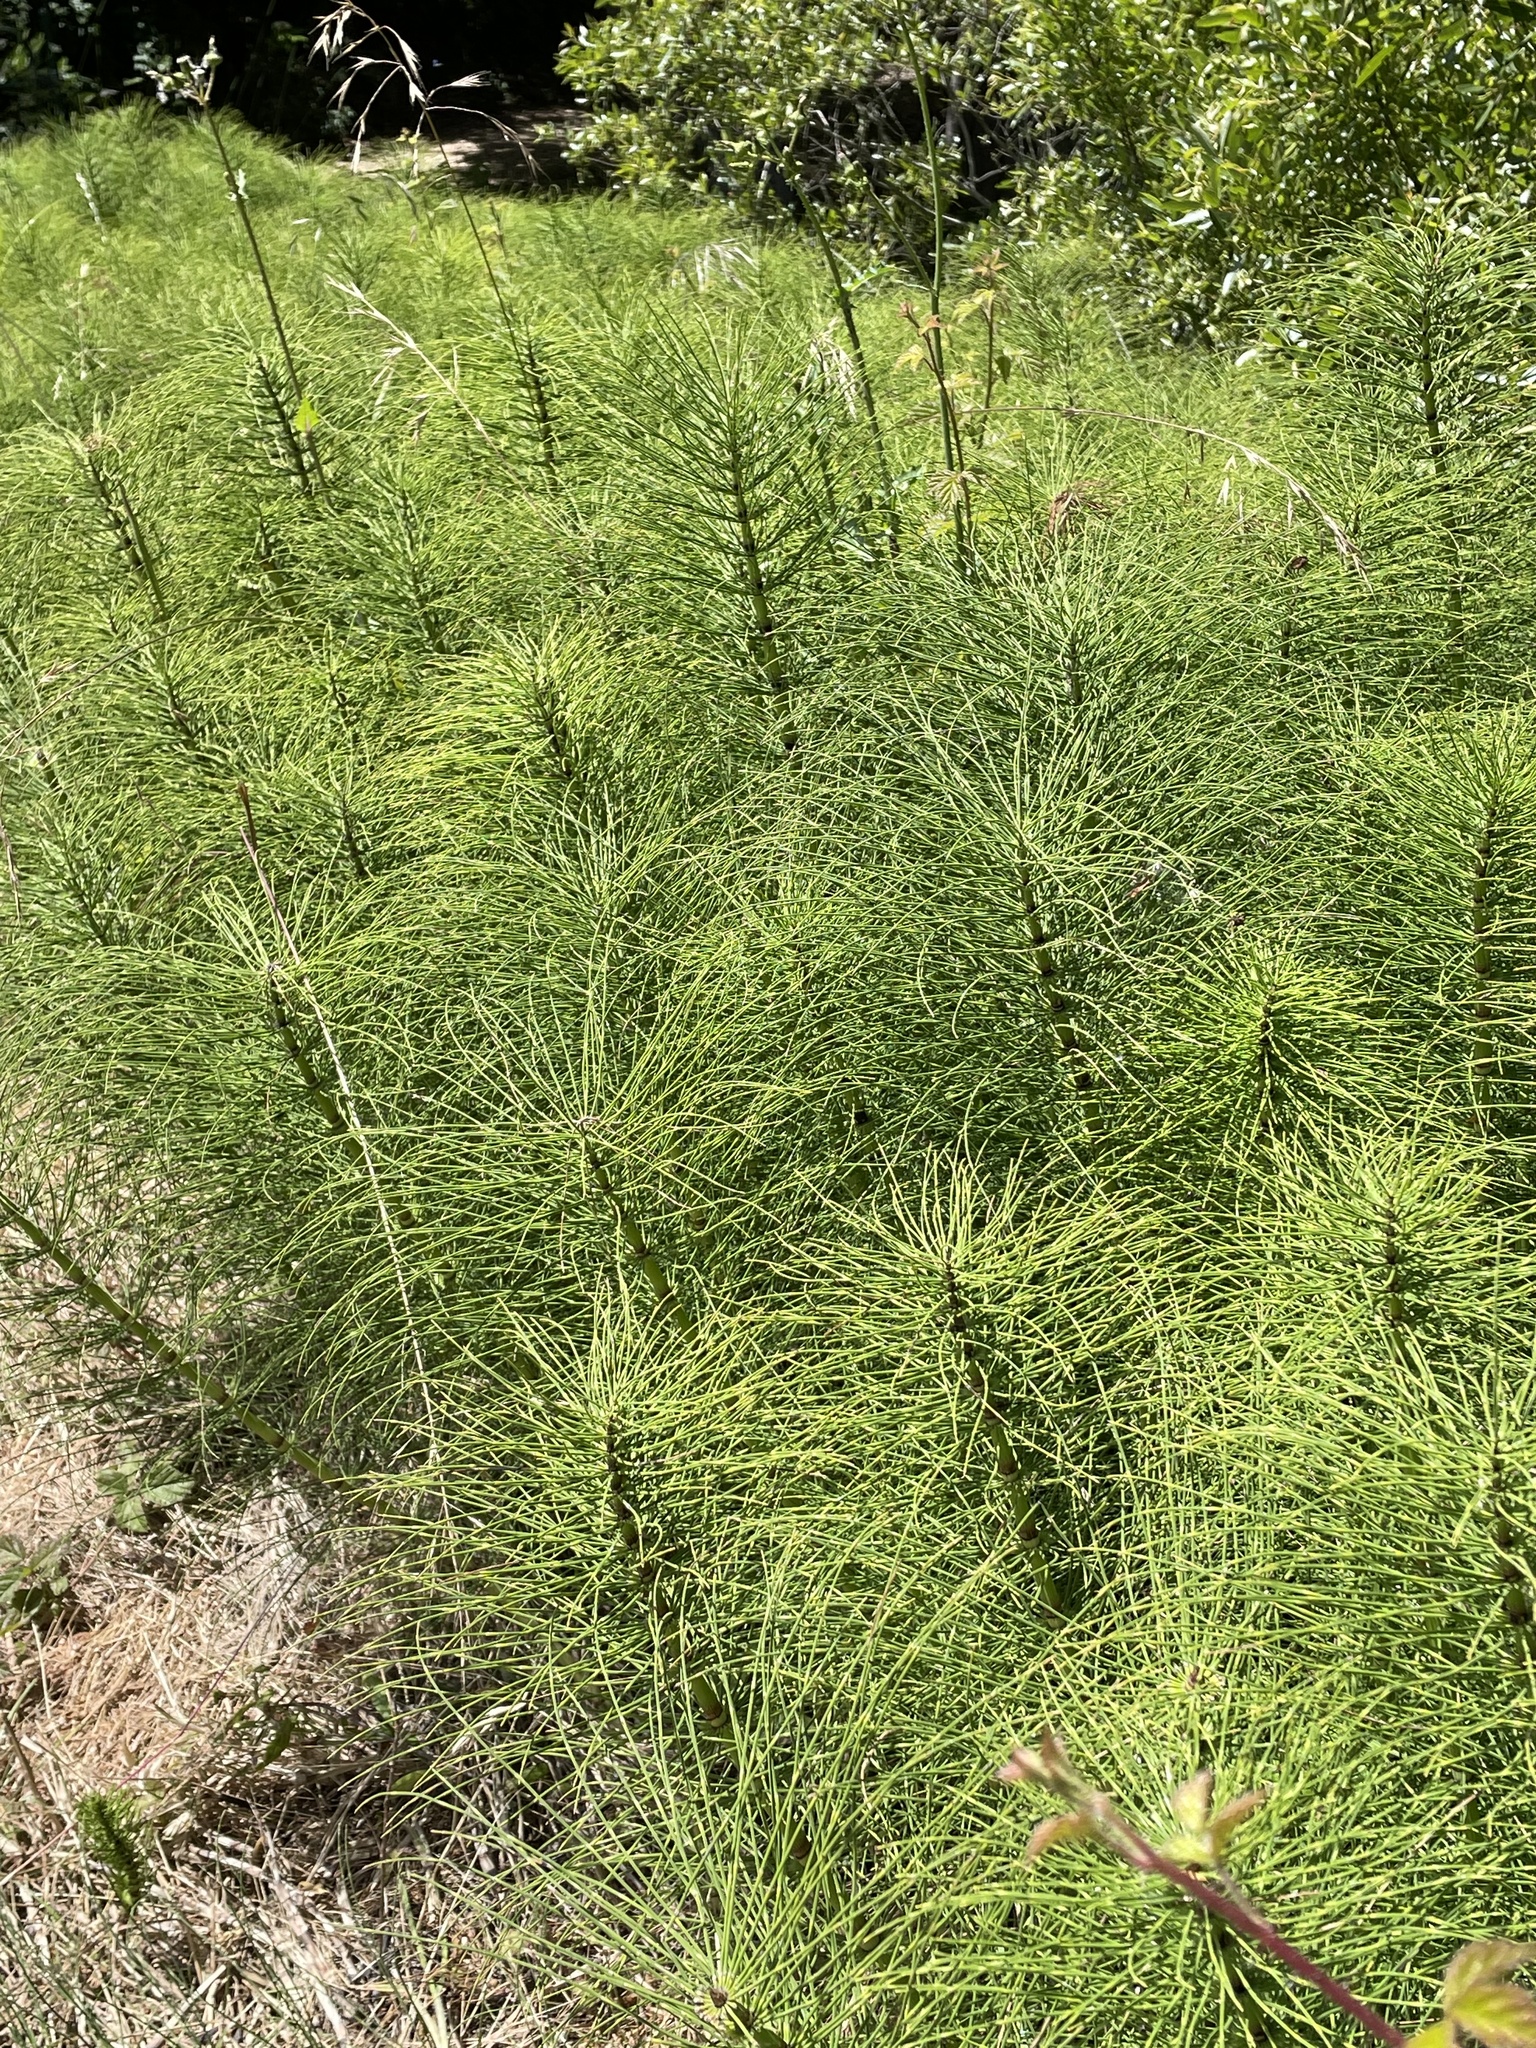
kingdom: Plantae
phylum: Tracheophyta
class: Polypodiopsida
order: Equisetales
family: Equisetaceae
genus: Equisetum
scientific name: Equisetum braunii
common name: Braun's horsetail
